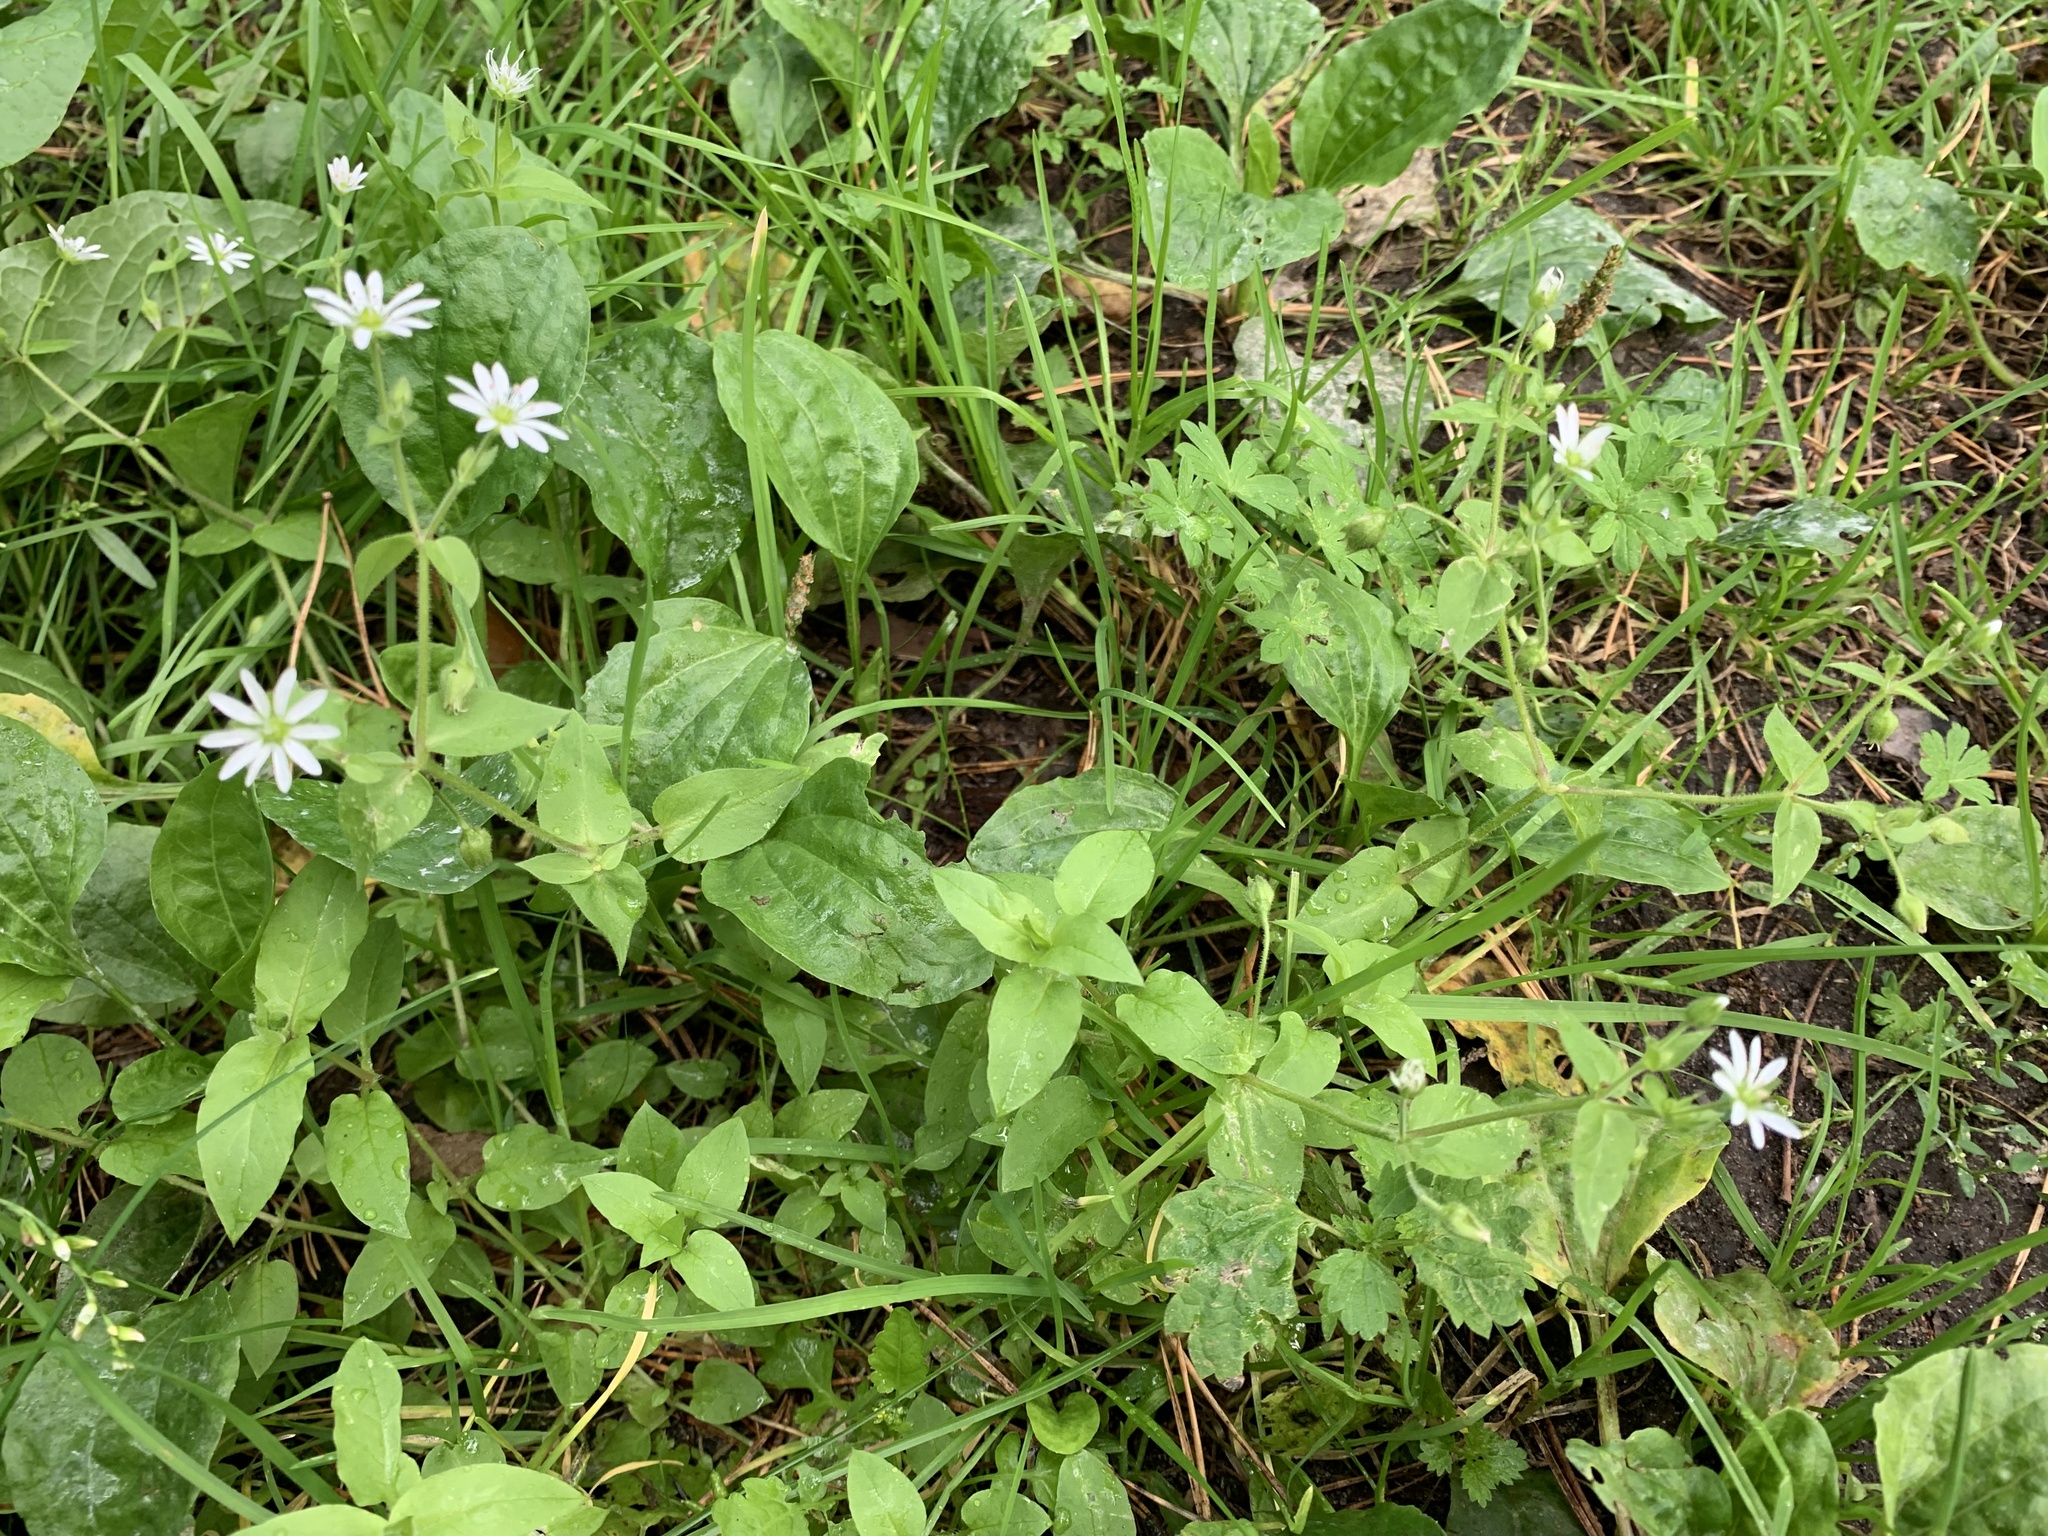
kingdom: Plantae
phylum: Tracheophyta
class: Magnoliopsida
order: Caryophyllales
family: Caryophyllaceae
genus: Stellaria
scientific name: Stellaria aquatica
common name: Water chickweed
